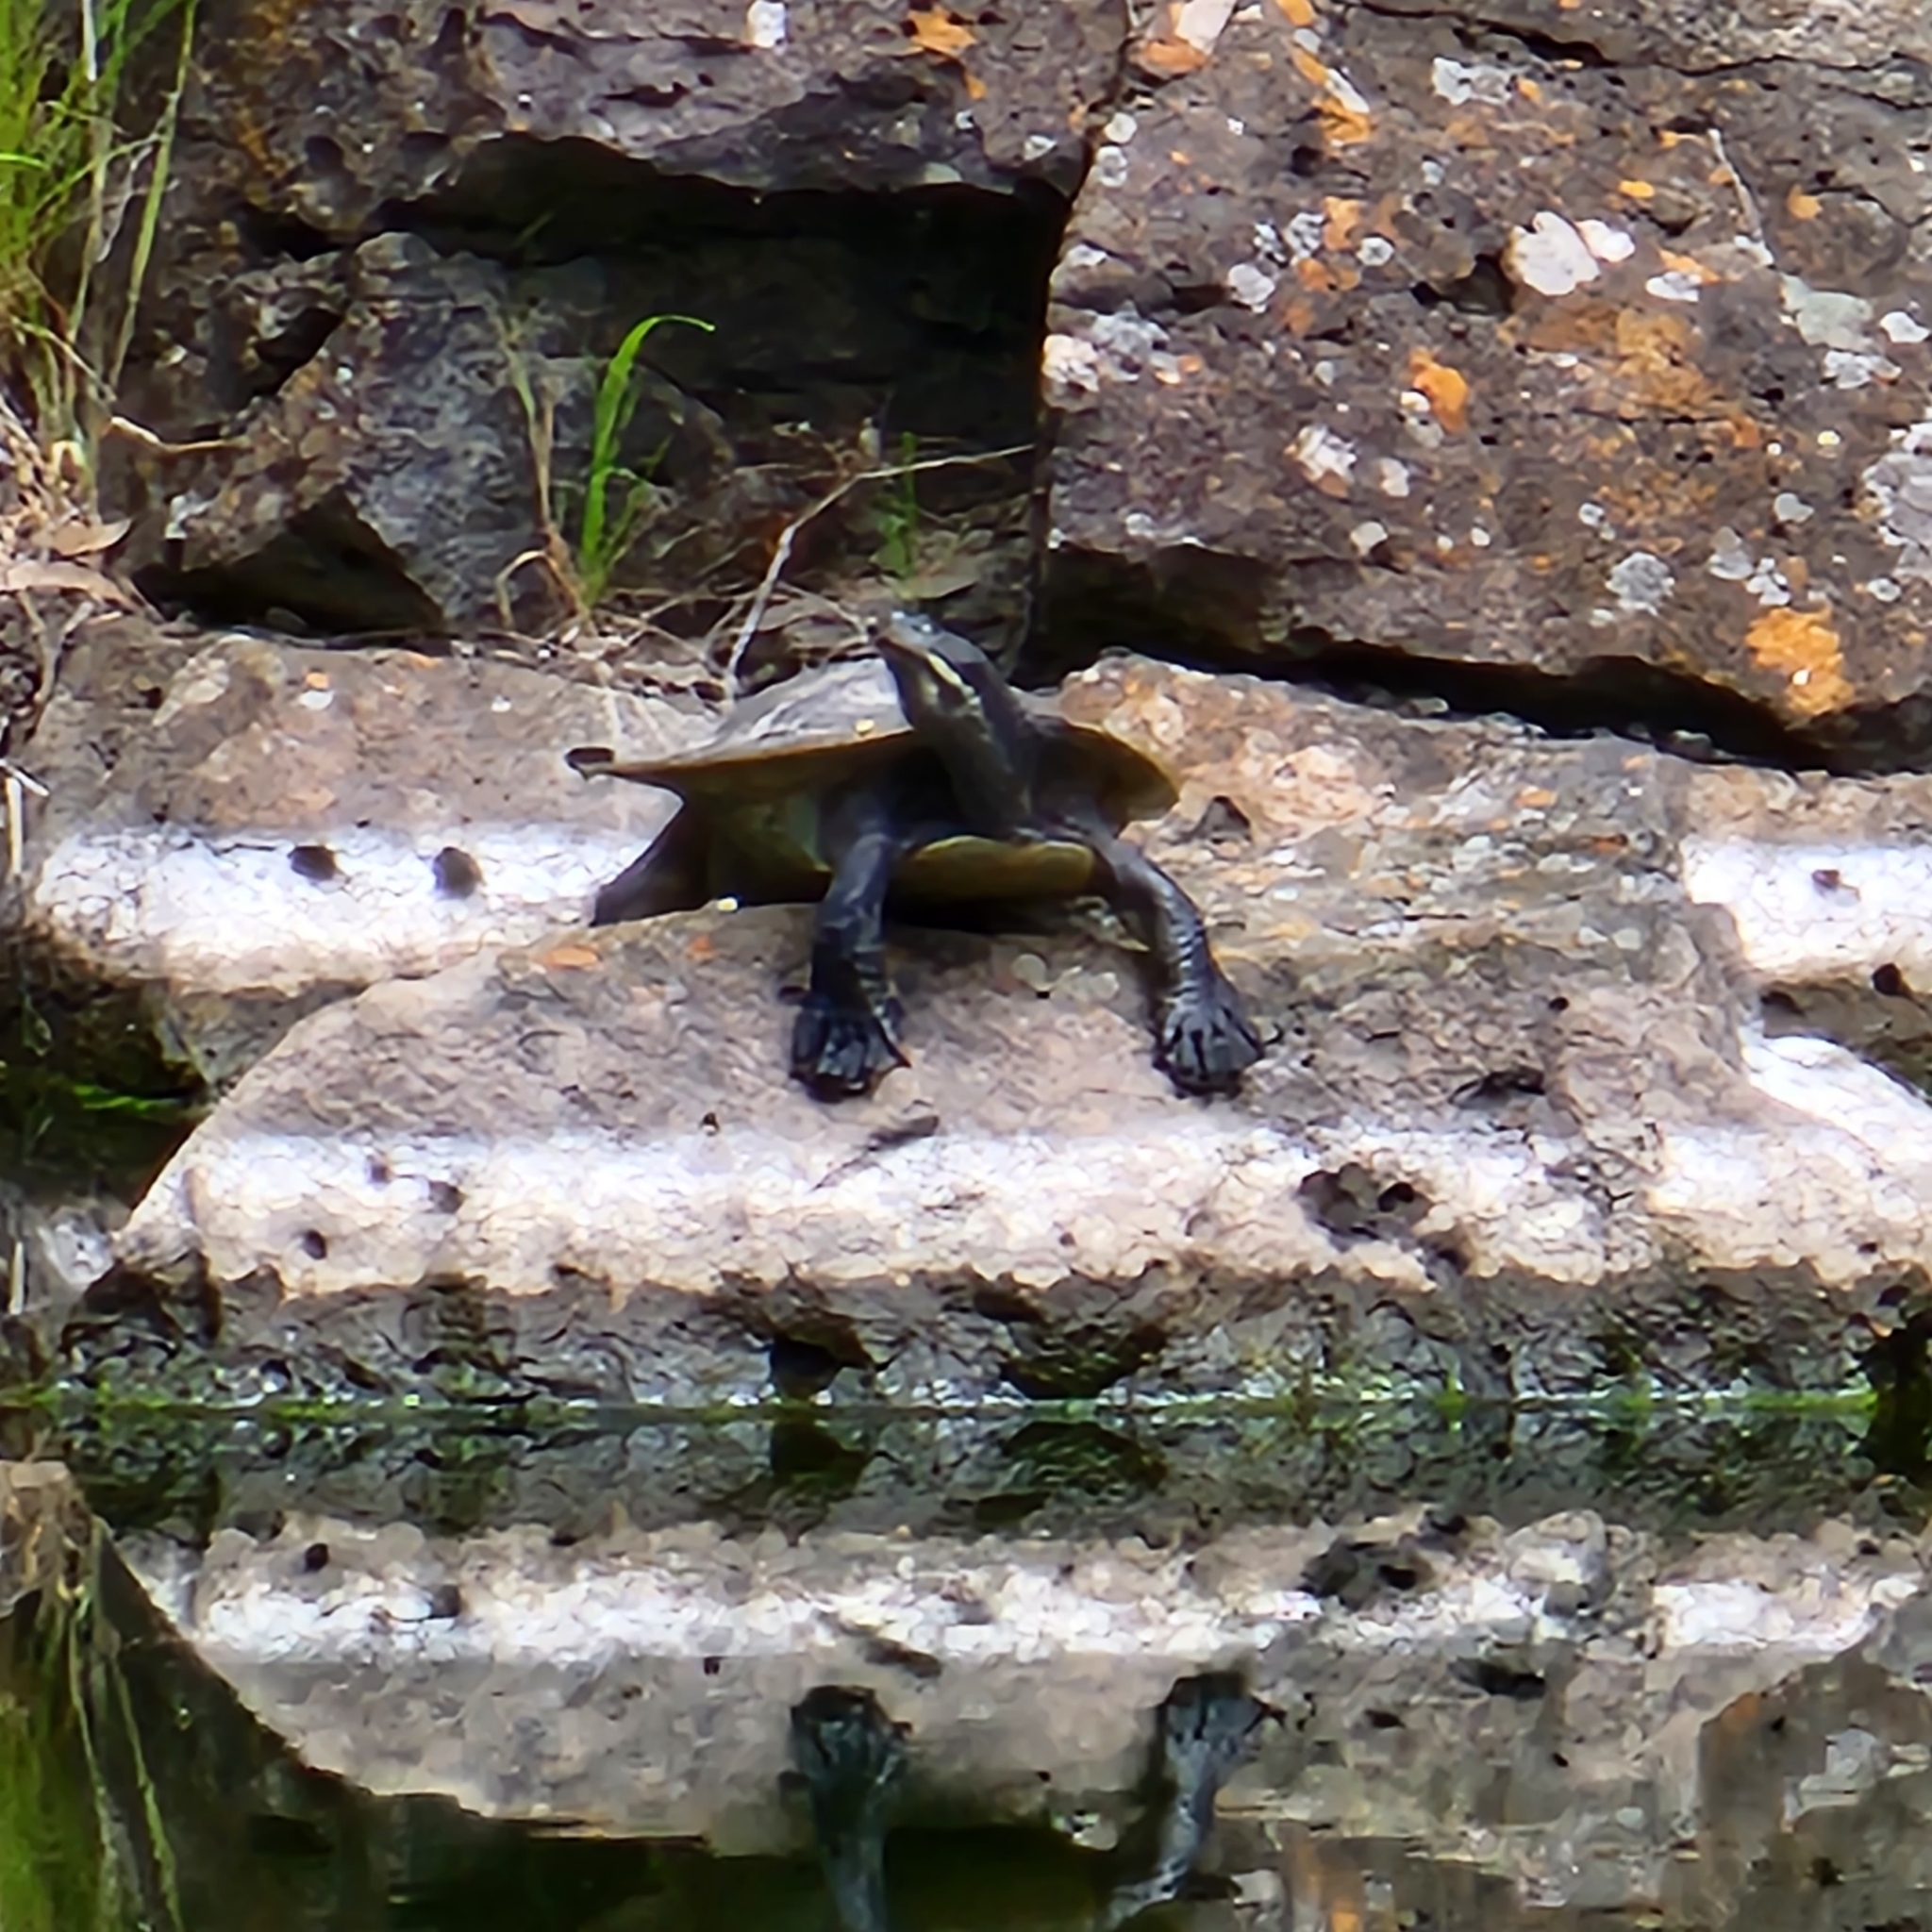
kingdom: Animalia
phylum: Chordata
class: Testudines
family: Chelidae
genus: Emydura
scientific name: Emydura macquarii
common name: Murray river turtle
